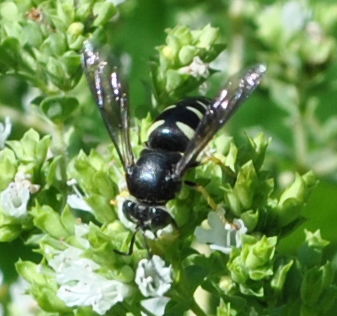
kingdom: Animalia
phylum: Arthropoda
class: Insecta
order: Hymenoptera
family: Crabronidae
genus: Bicyrtes
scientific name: Bicyrtes quadrifasciatus
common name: Four-banded stink bug hunter wasp
